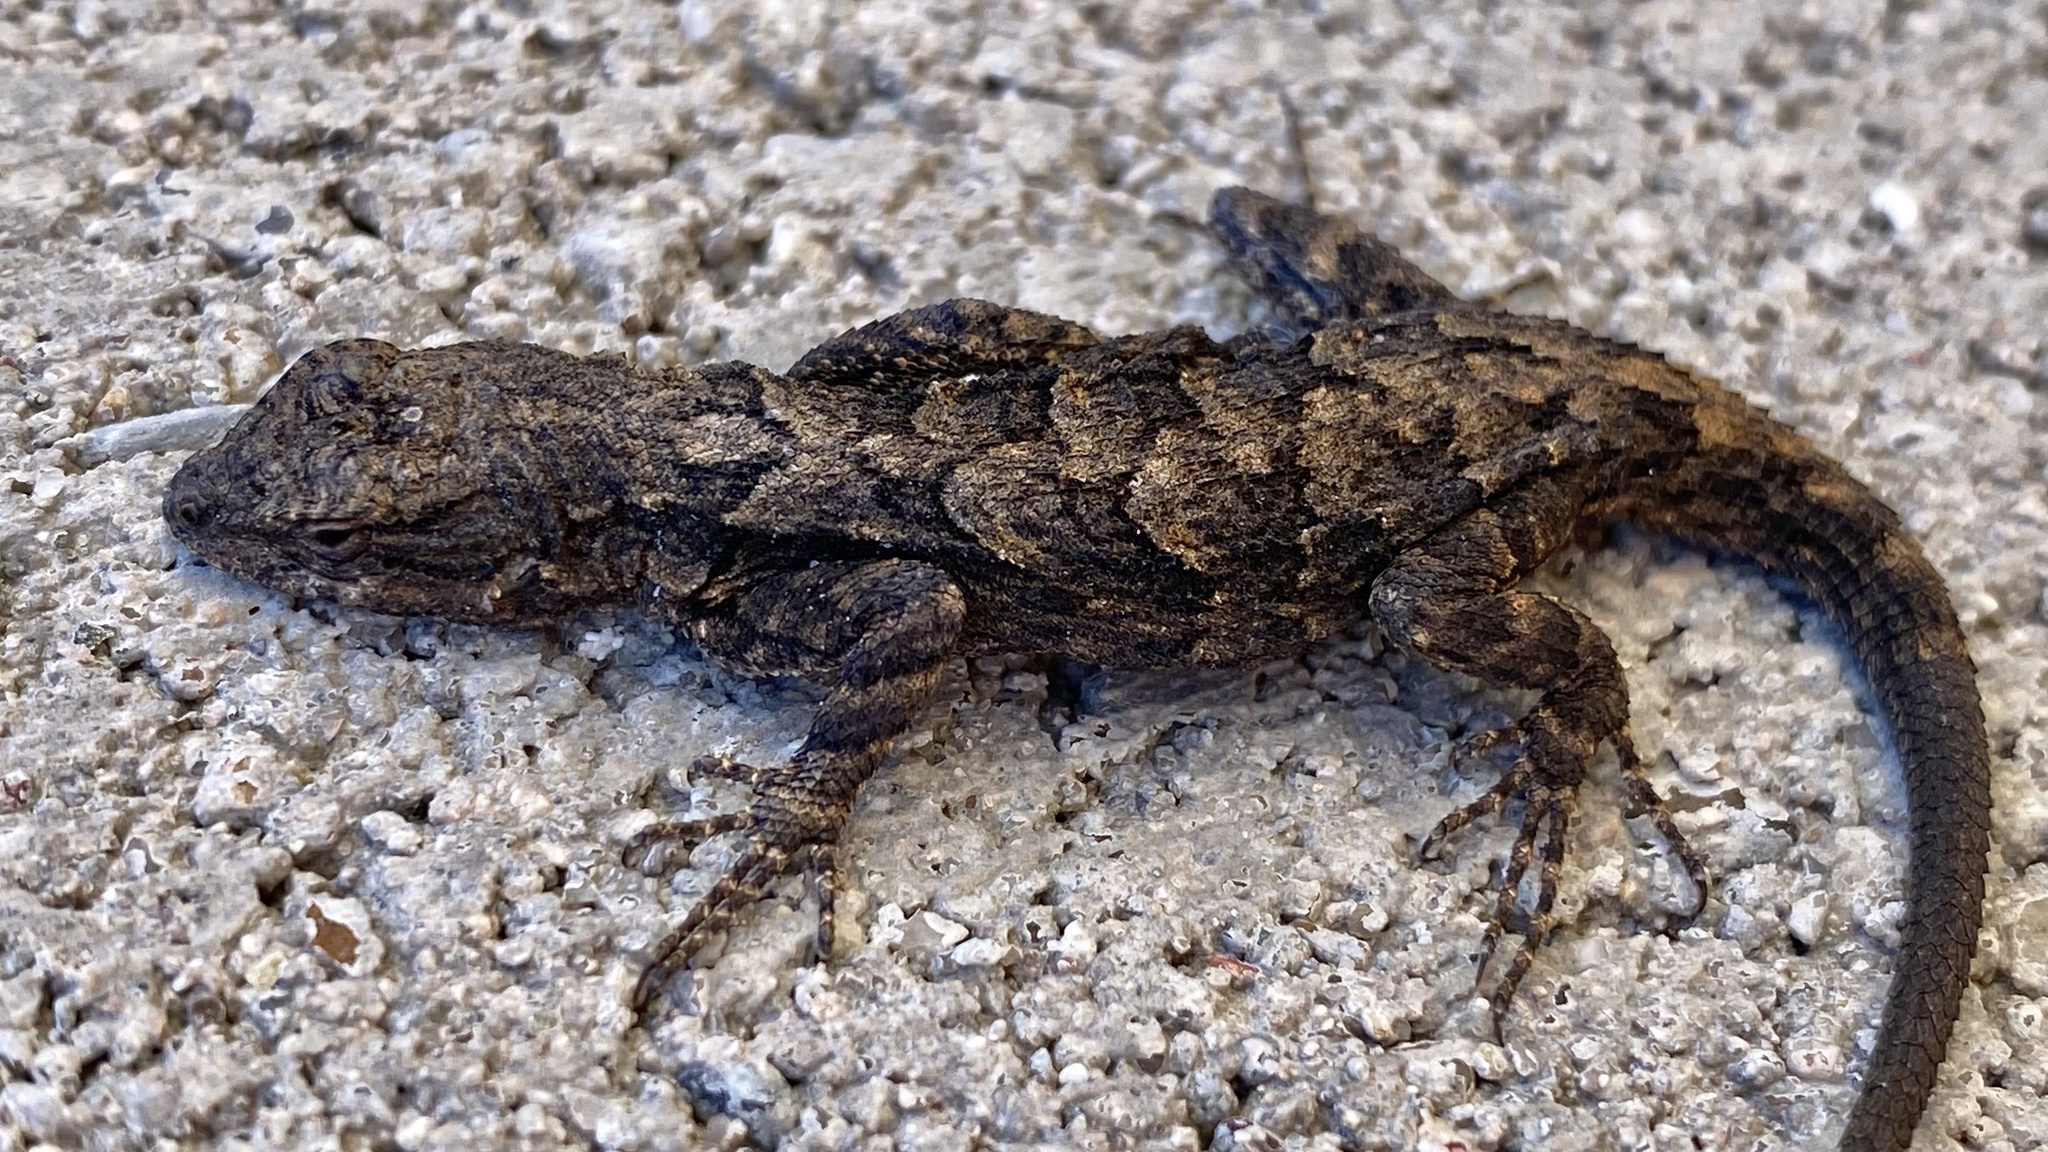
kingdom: Animalia
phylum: Chordata
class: Squamata
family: Phrynosomatidae
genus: Urosaurus
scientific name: Urosaurus ornatus
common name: Ornate tree lizard
